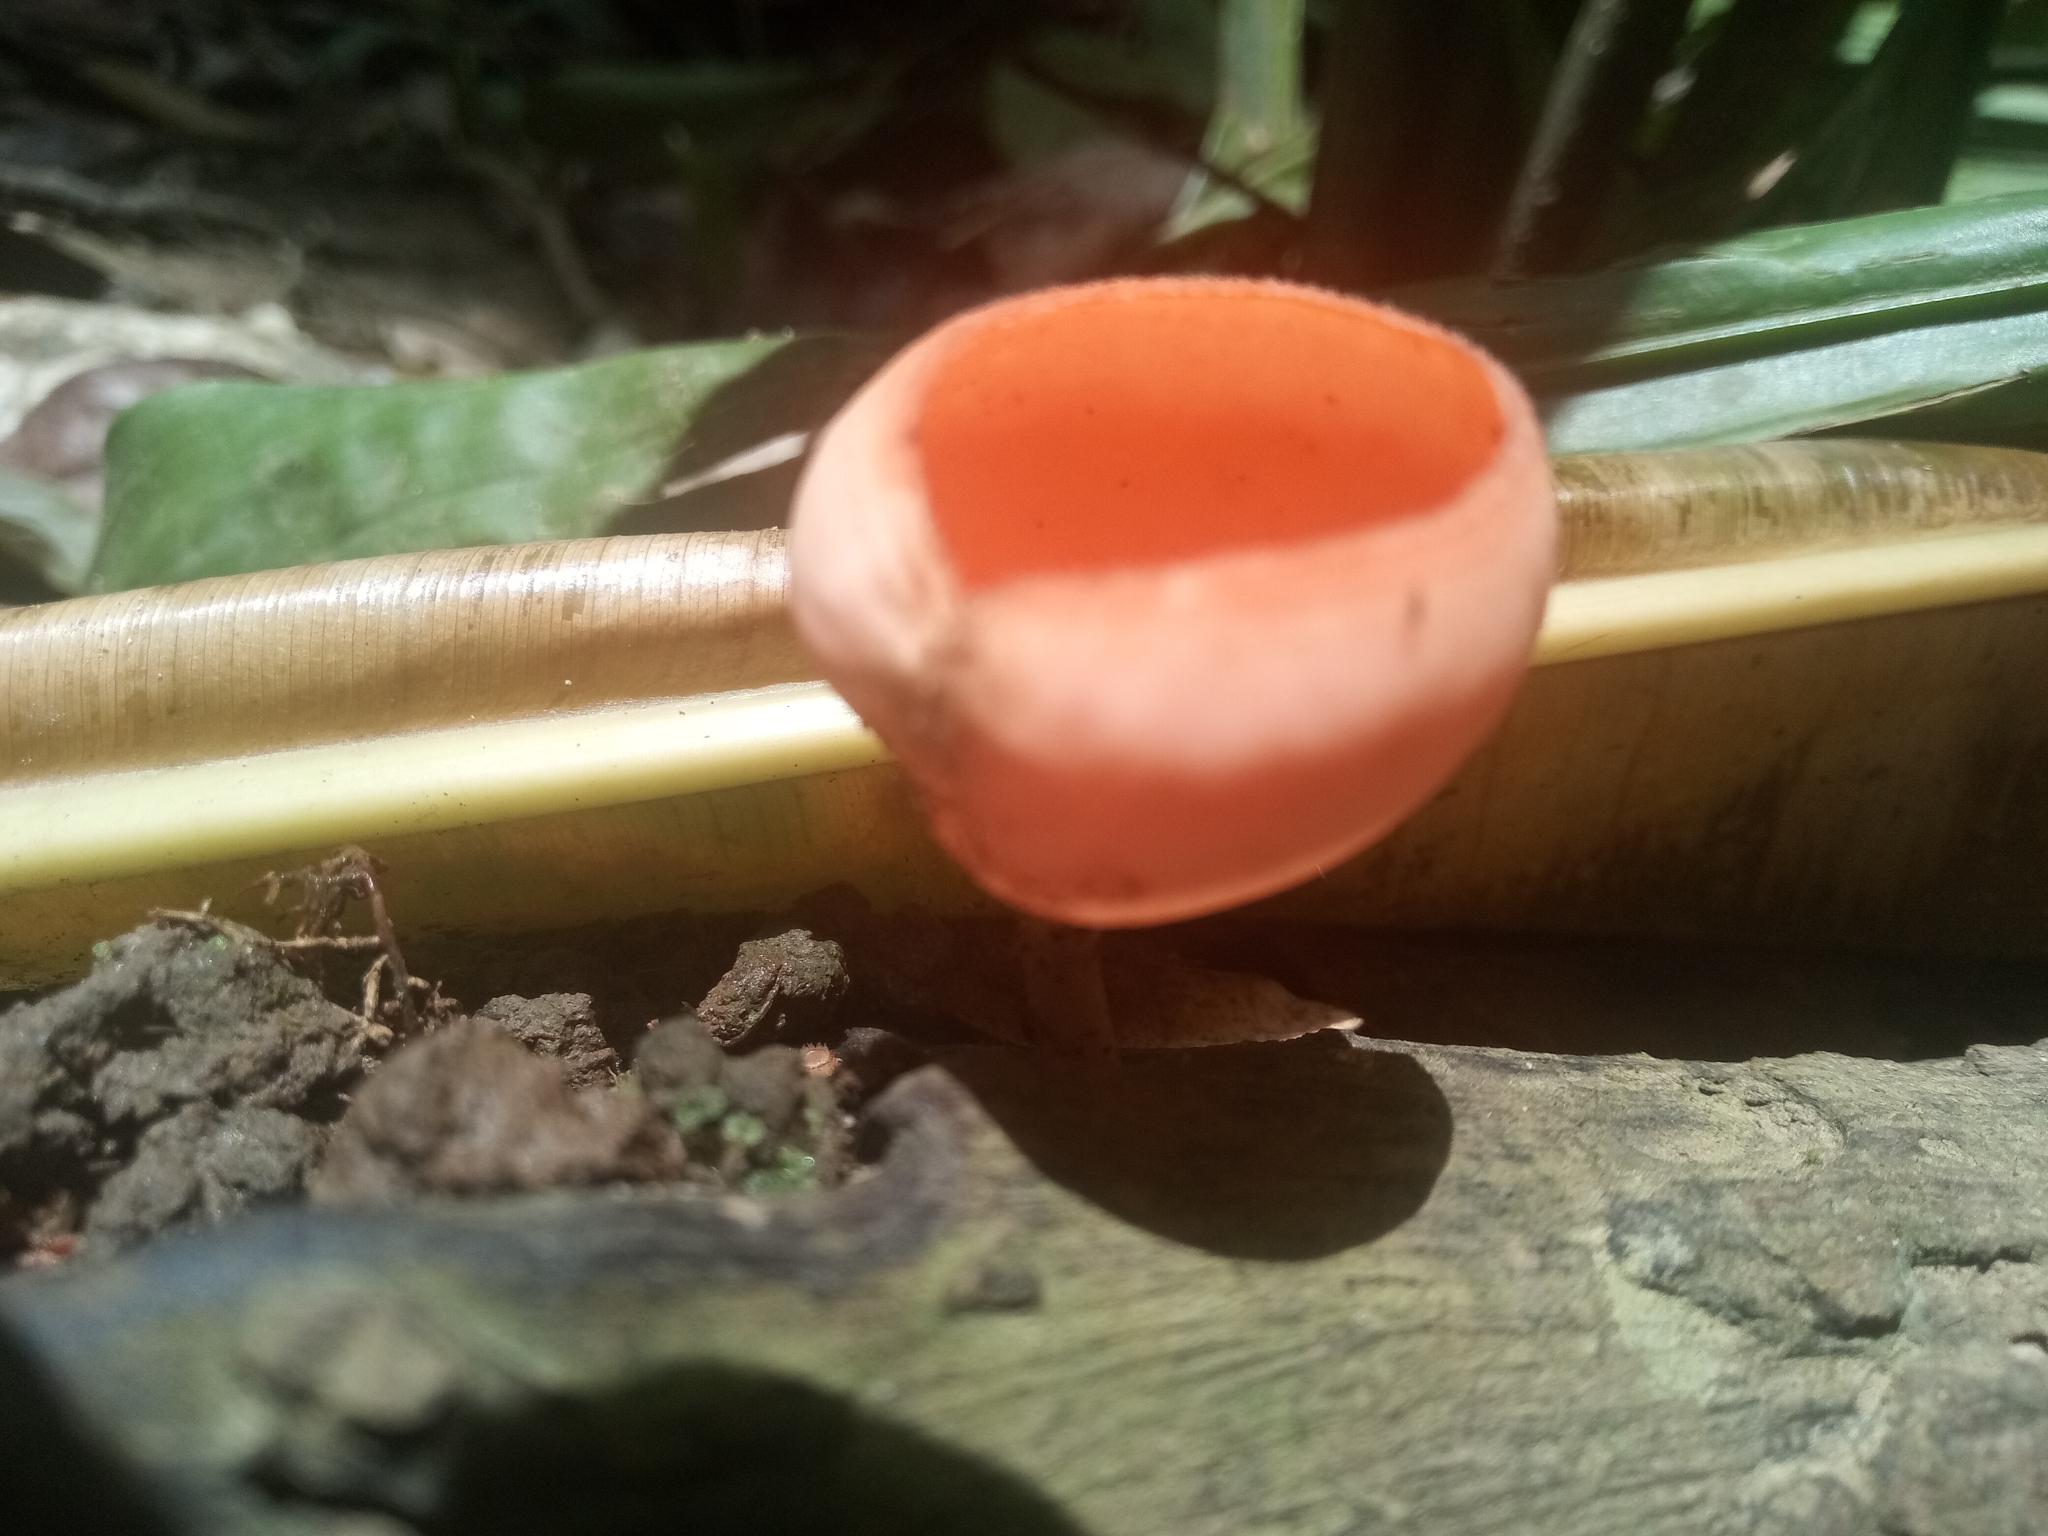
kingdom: Fungi
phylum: Ascomycota
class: Pezizomycetes
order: Pezizales
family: Sarcoscyphaceae
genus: Cookeina
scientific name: Cookeina speciosa
